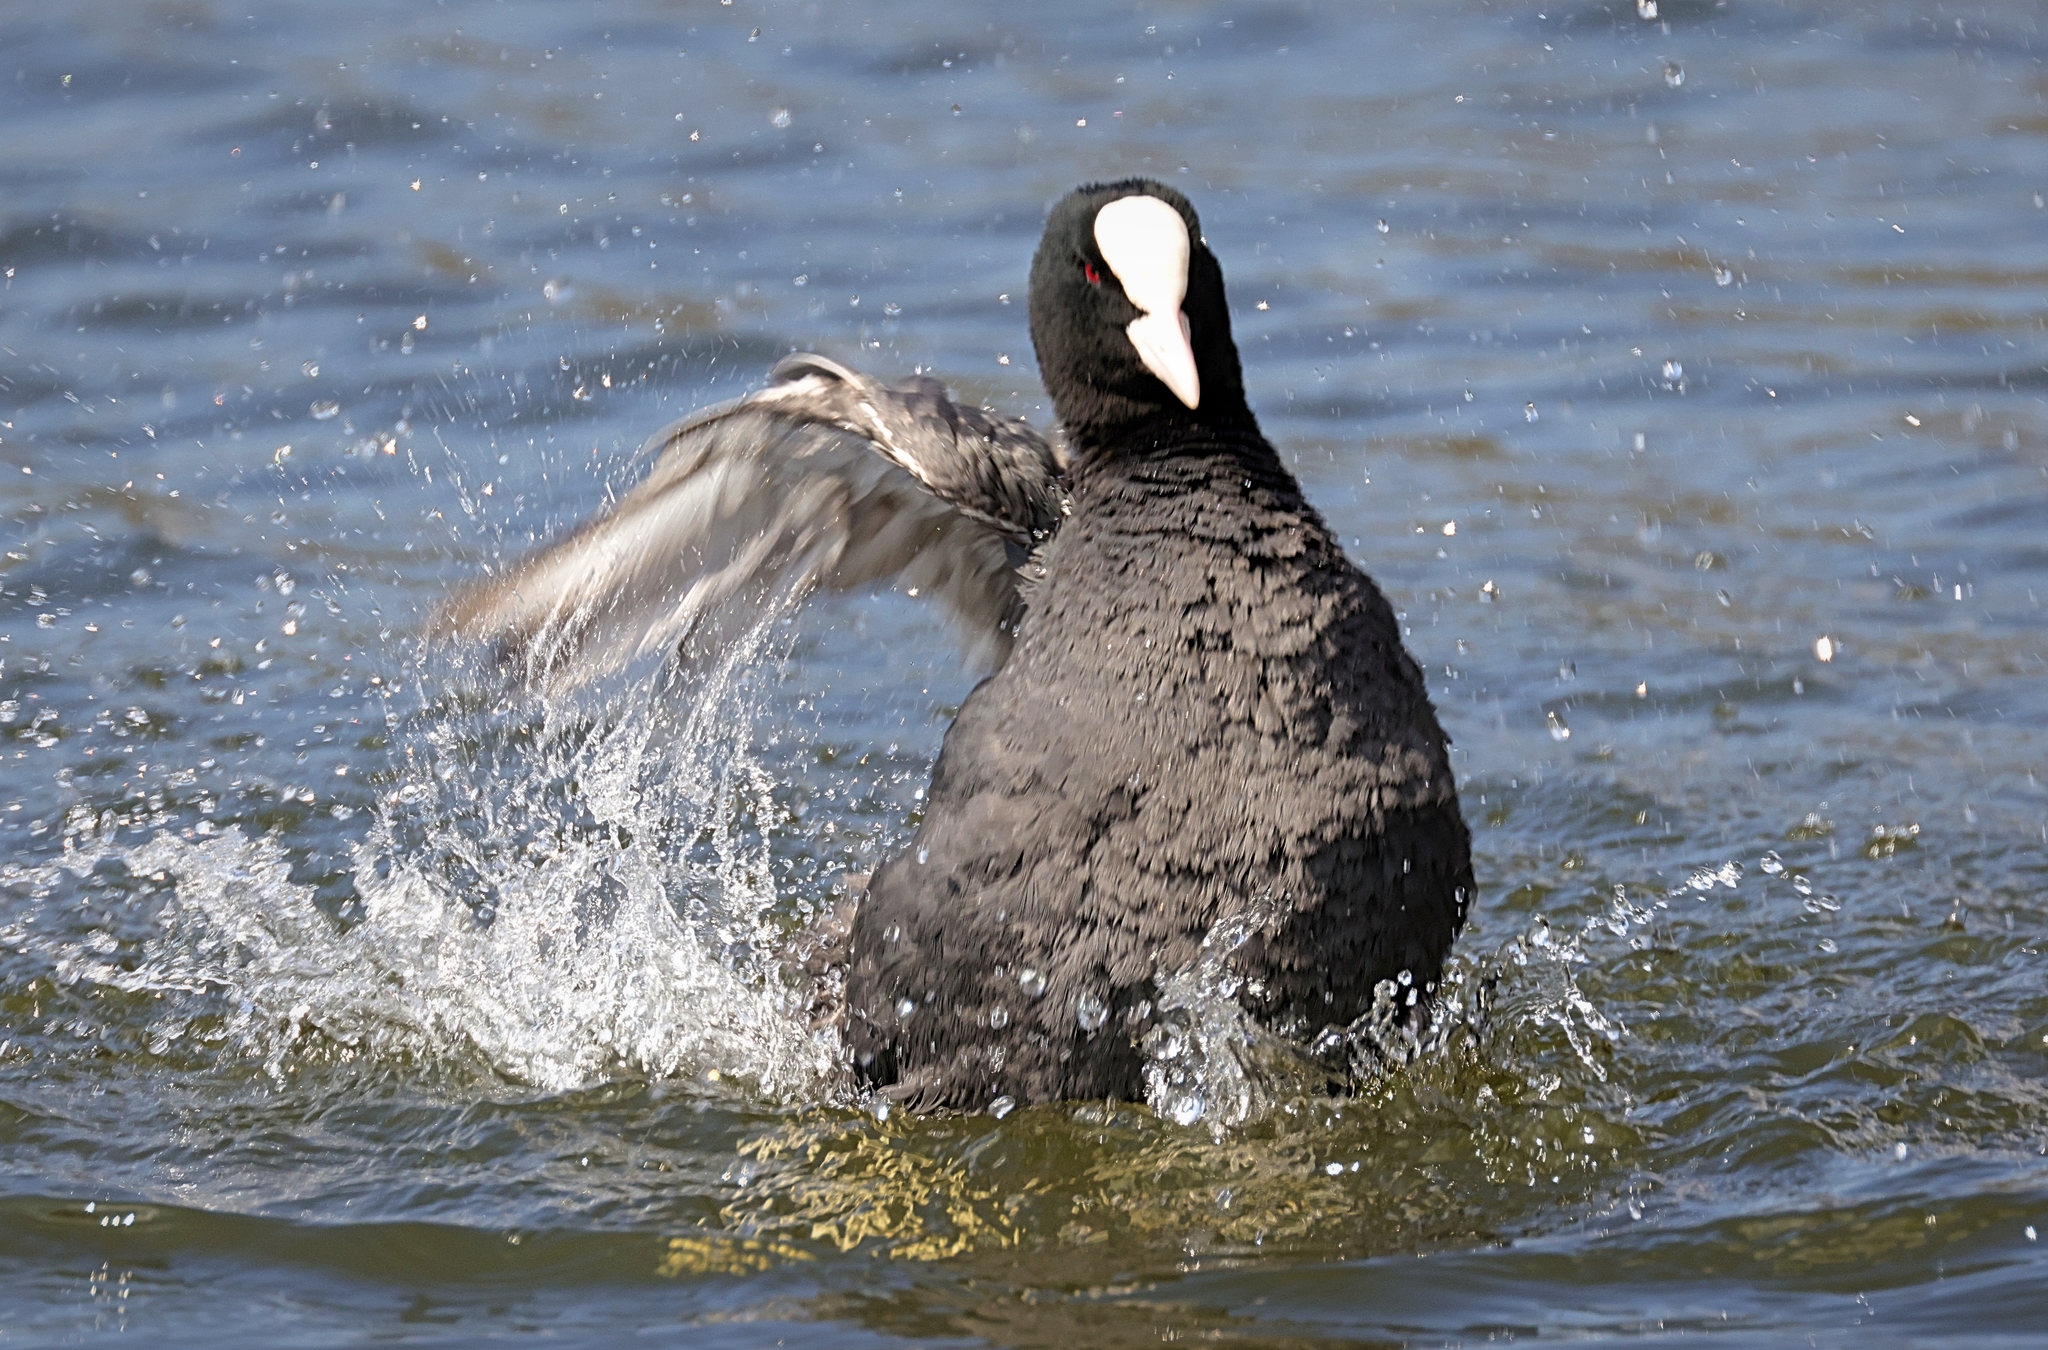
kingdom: Animalia
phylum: Chordata
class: Aves
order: Gruiformes
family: Rallidae
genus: Fulica
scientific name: Fulica atra
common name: Eurasian coot
